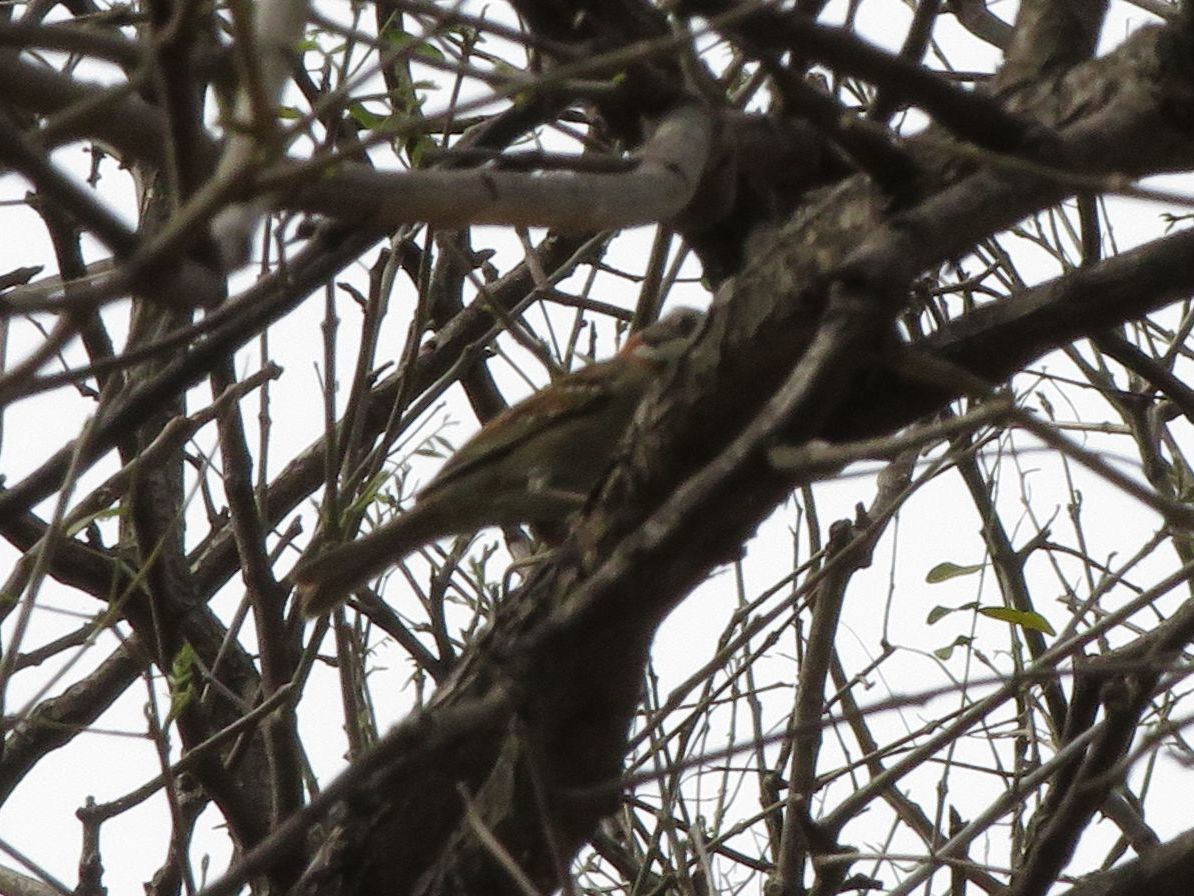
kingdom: Animalia
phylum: Chordata
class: Aves
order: Passeriformes
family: Passerellidae
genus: Zonotrichia
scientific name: Zonotrichia capensis
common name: Rufous-collared sparrow
